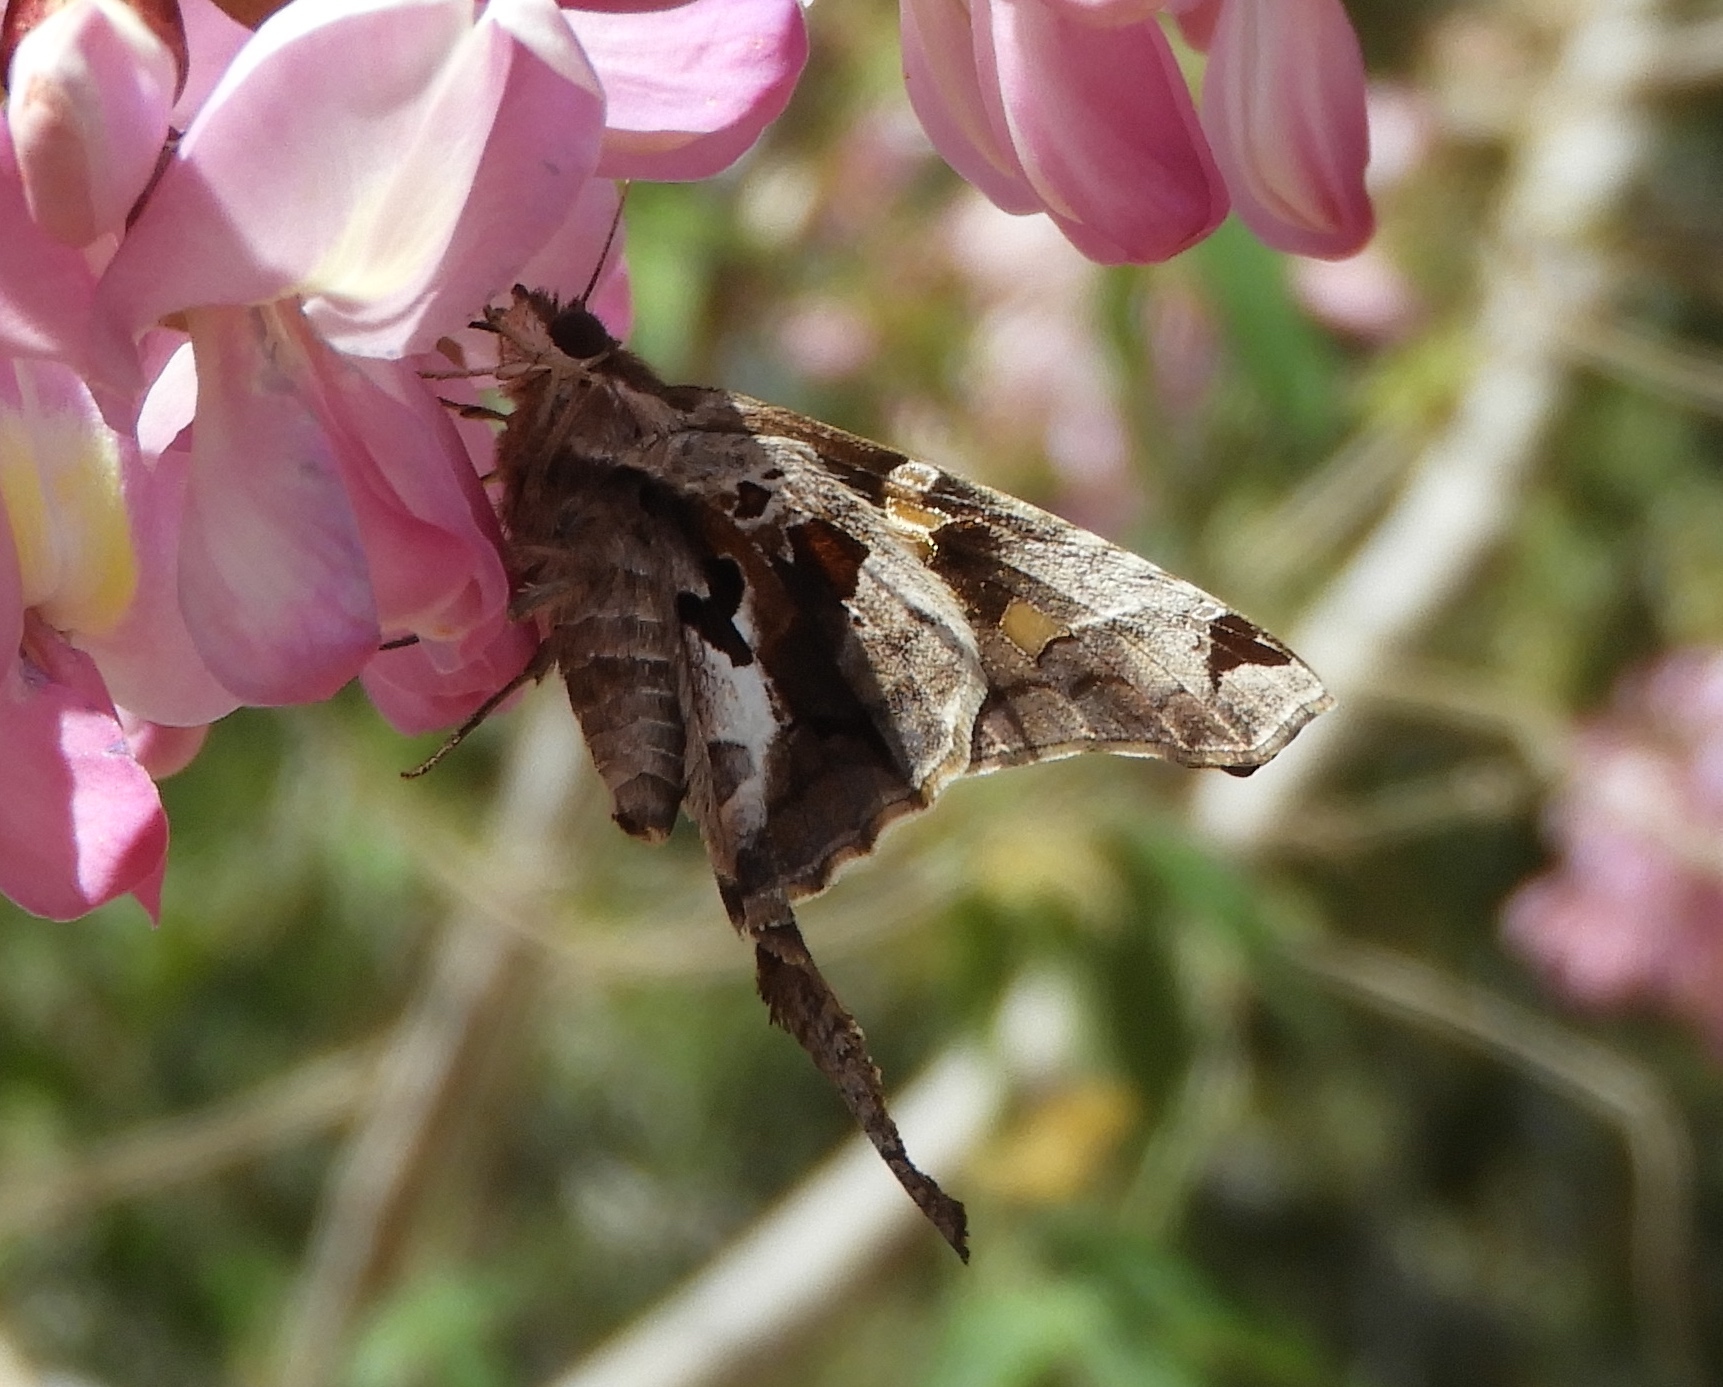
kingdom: Animalia
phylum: Arthropoda
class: Insecta
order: Lepidoptera
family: Hesperiidae
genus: Chioides
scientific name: Chioides zilpa
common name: Zilpa longtail
